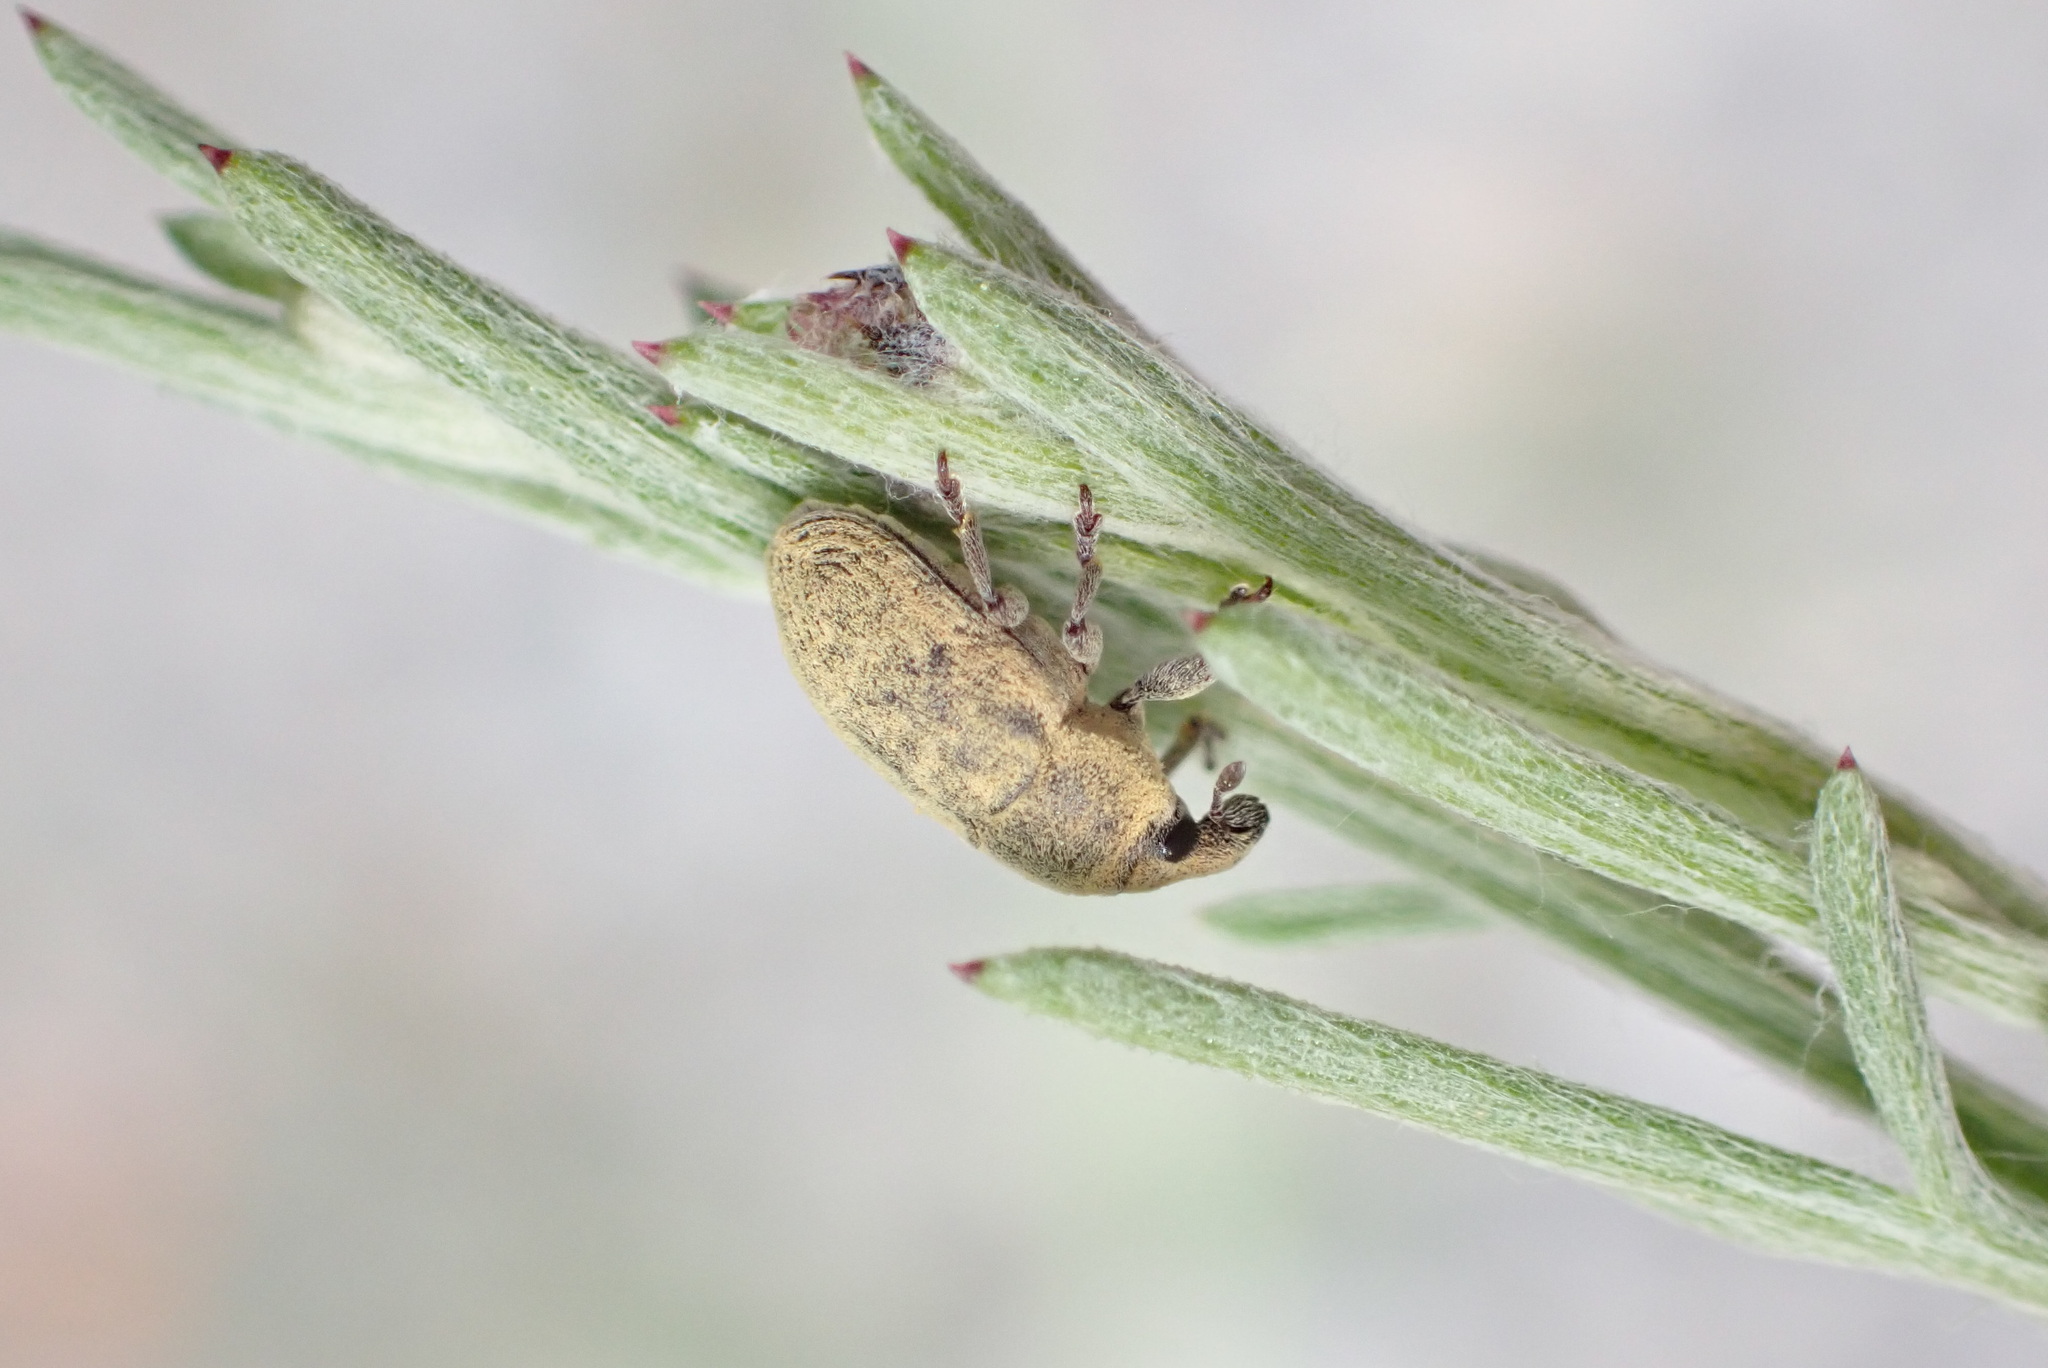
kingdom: Animalia
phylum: Arthropoda
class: Insecta
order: Coleoptera
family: Curculionidae
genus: Larinus
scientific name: Larinus minutus
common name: Weevil
